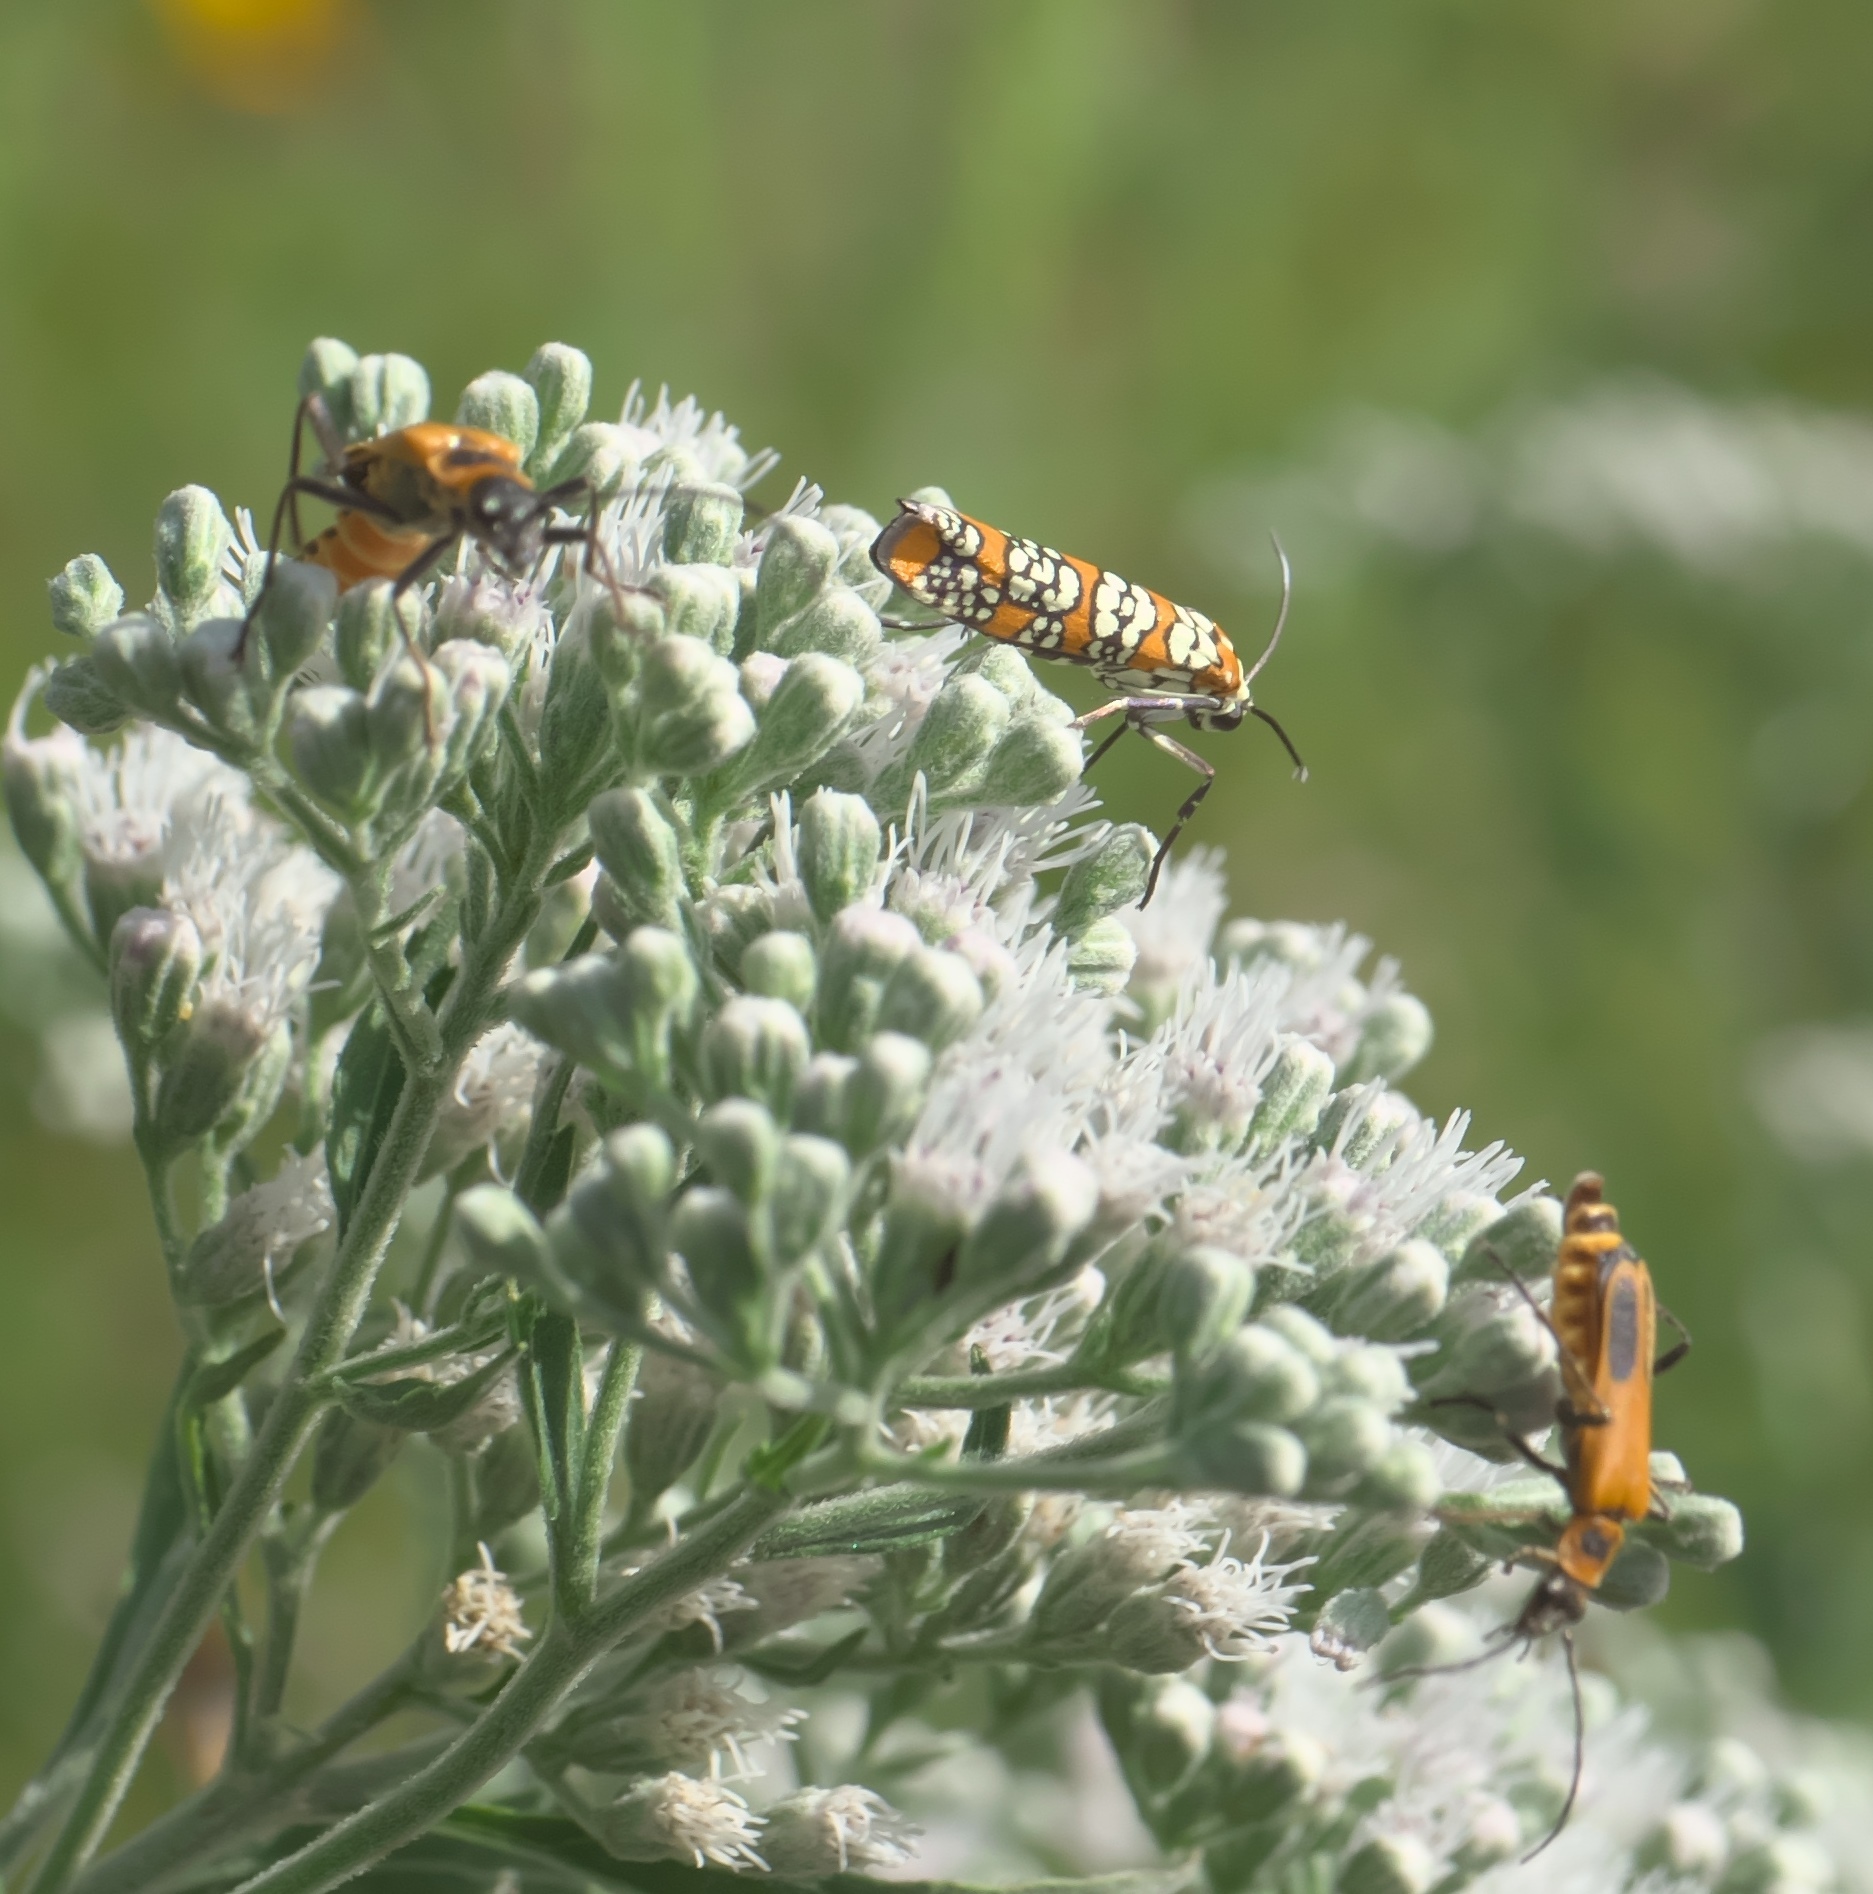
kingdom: Animalia
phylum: Arthropoda
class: Insecta
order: Lepidoptera
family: Attevidae
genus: Atteva
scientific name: Atteva punctella
